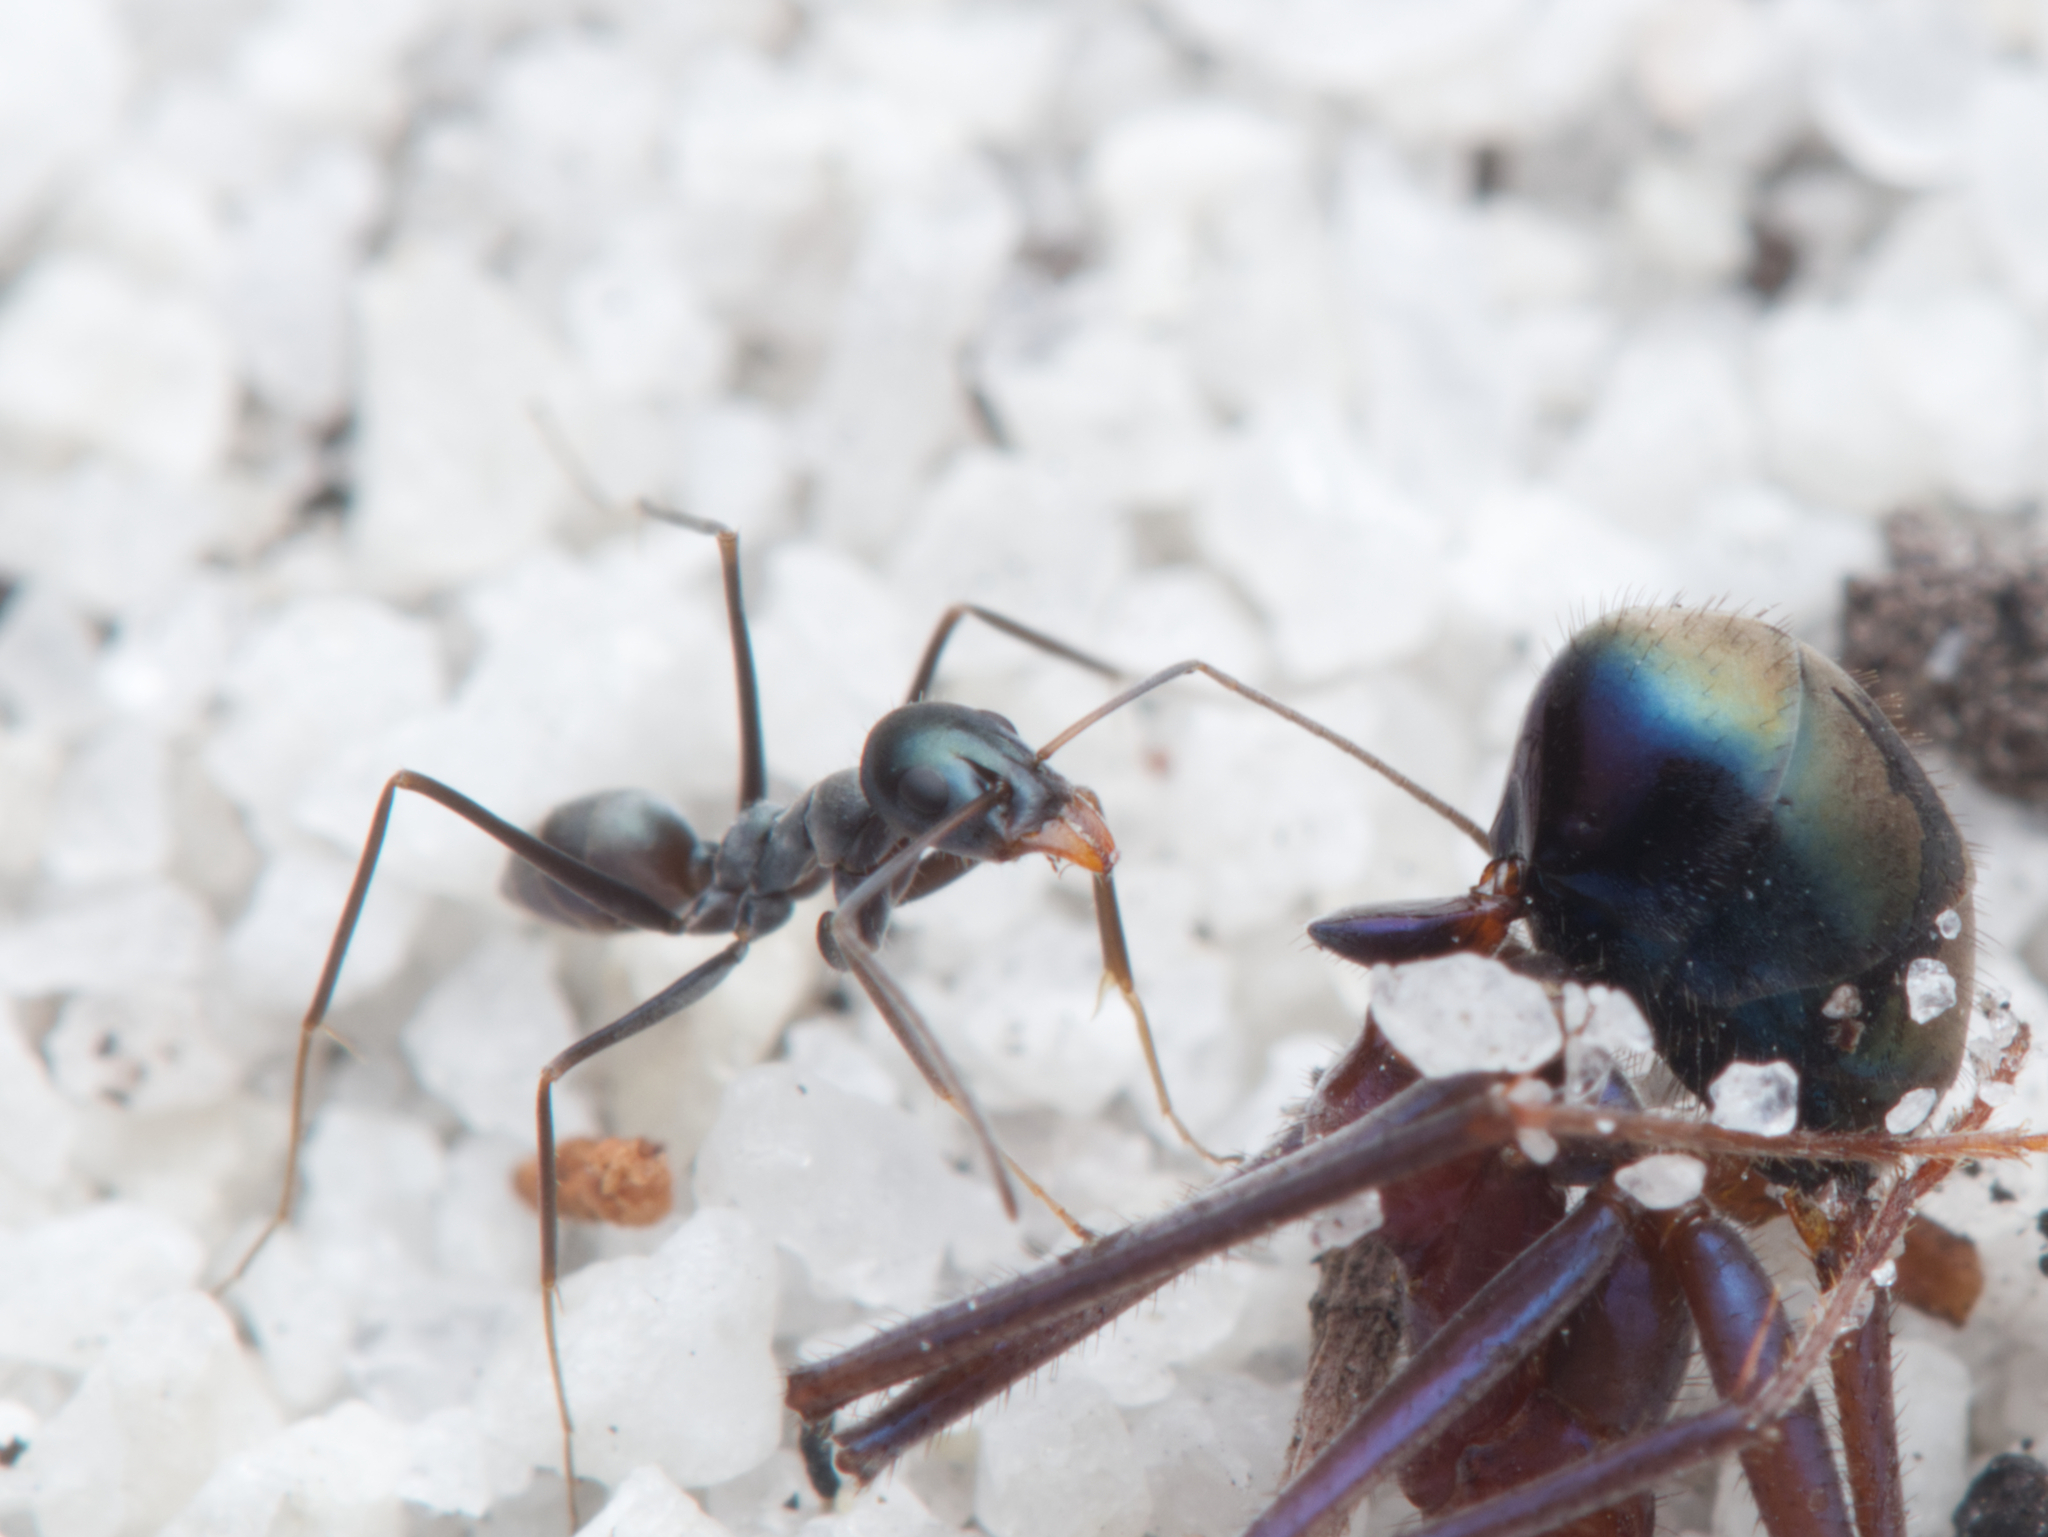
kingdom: Animalia
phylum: Arthropoda
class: Insecta
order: Hymenoptera
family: Formicidae
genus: Iridomyrmex
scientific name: Iridomyrmex bicknelli
